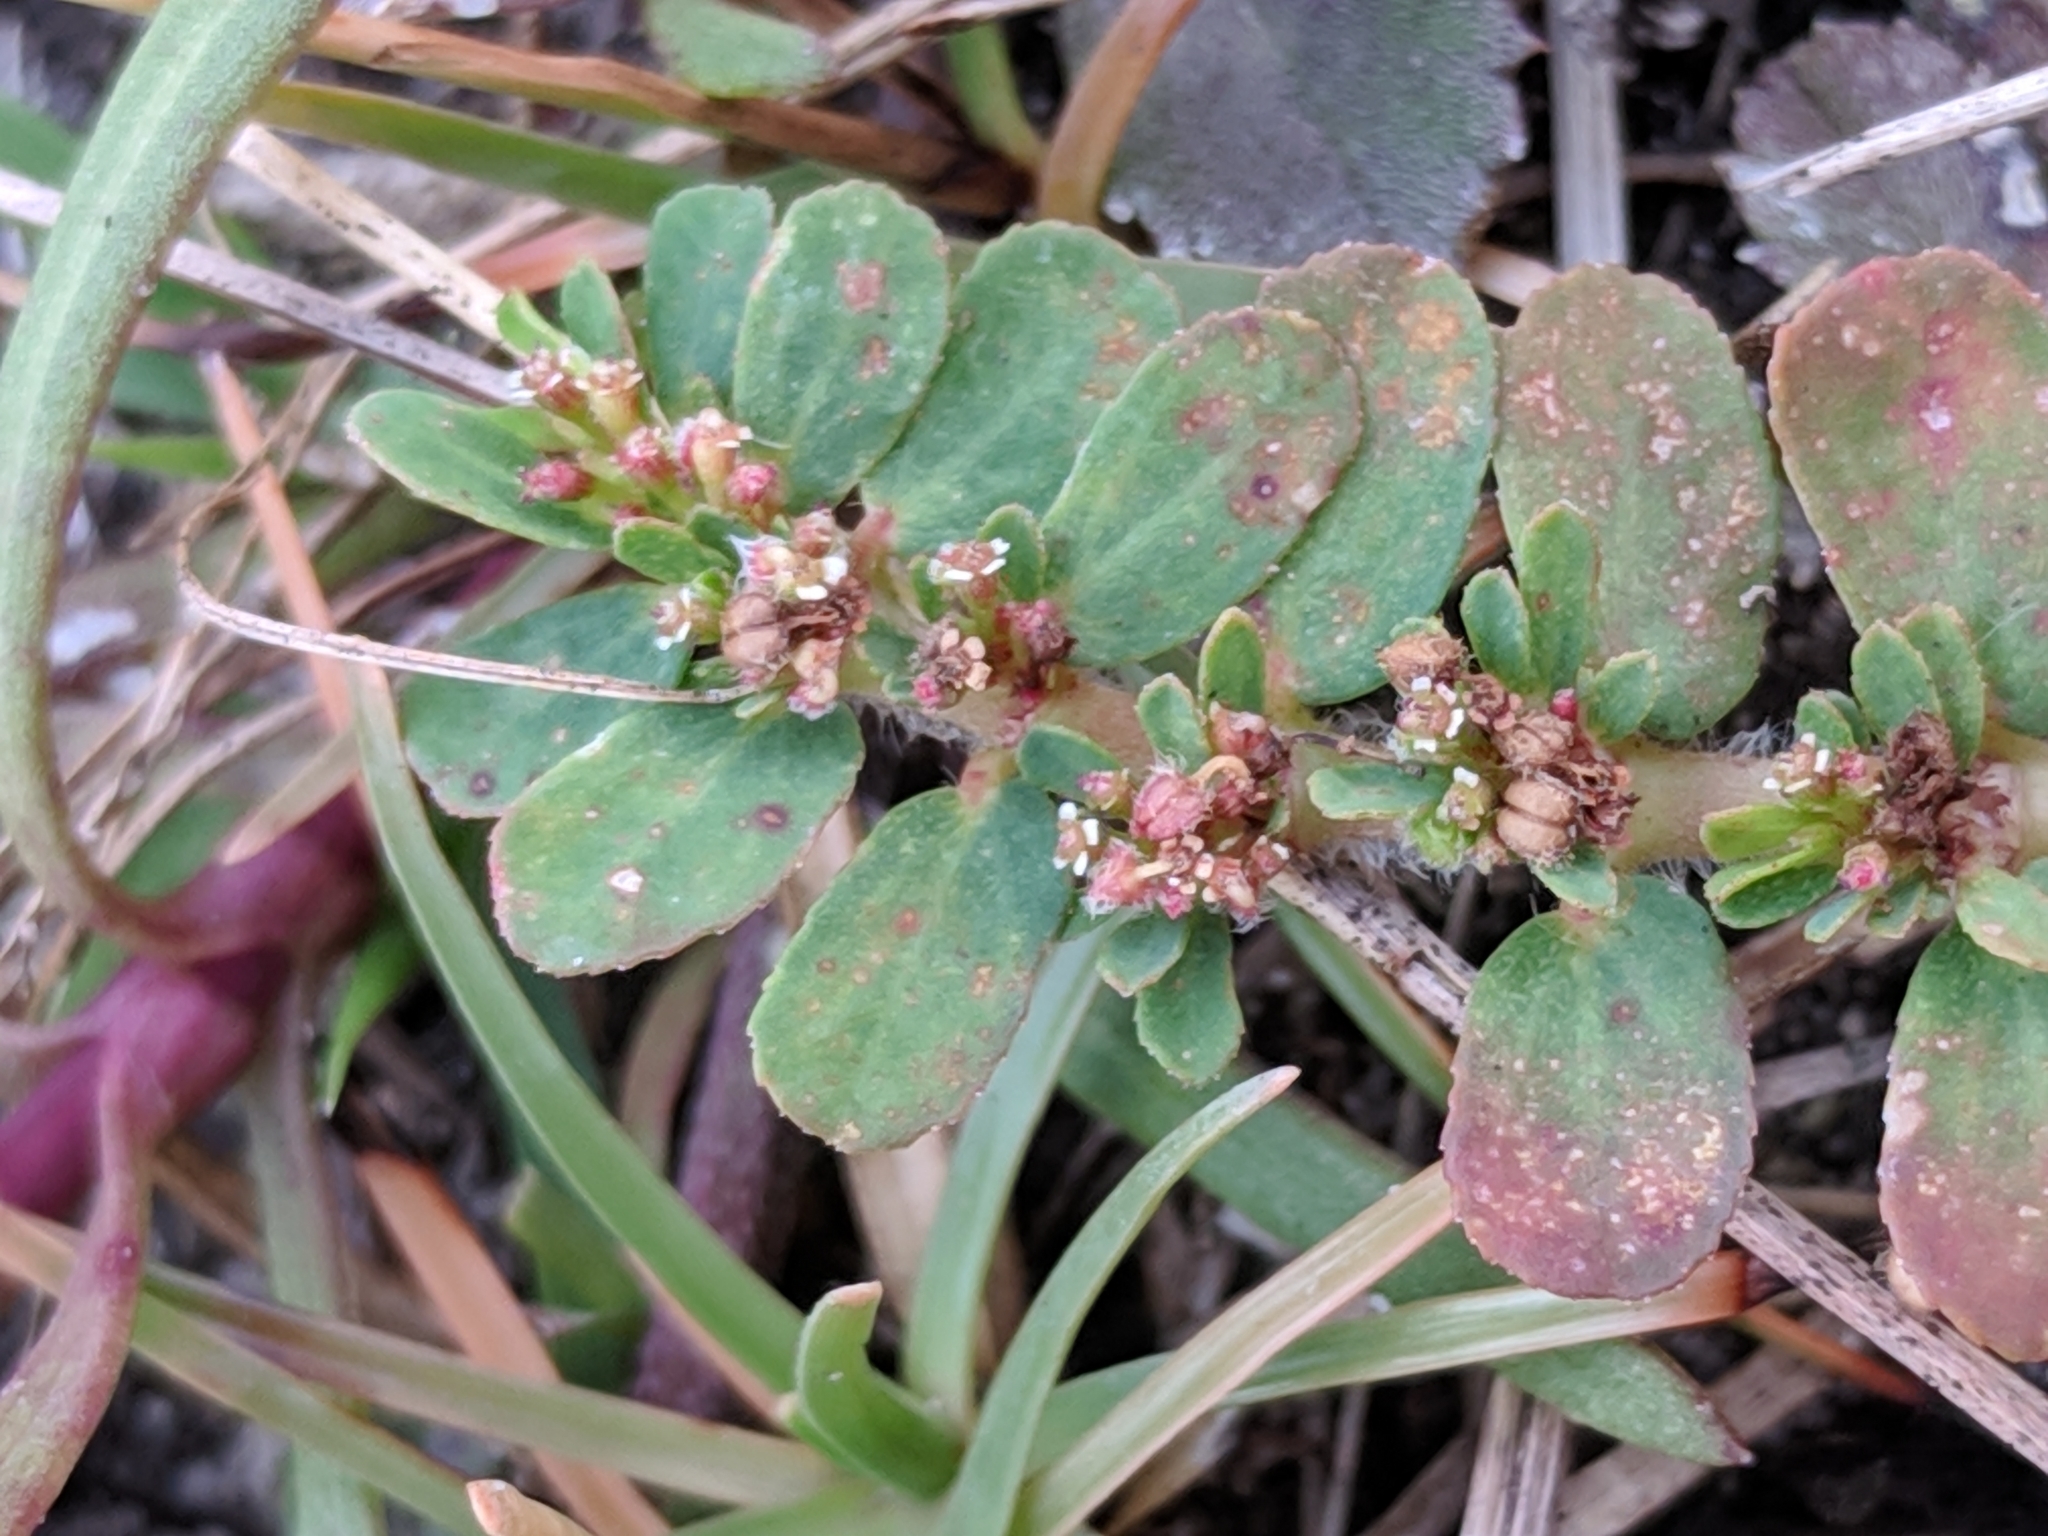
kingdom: Plantae
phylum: Tracheophyta
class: Magnoliopsida
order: Malpighiales
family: Euphorbiaceae
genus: Euphorbia
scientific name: Euphorbia mendezii
